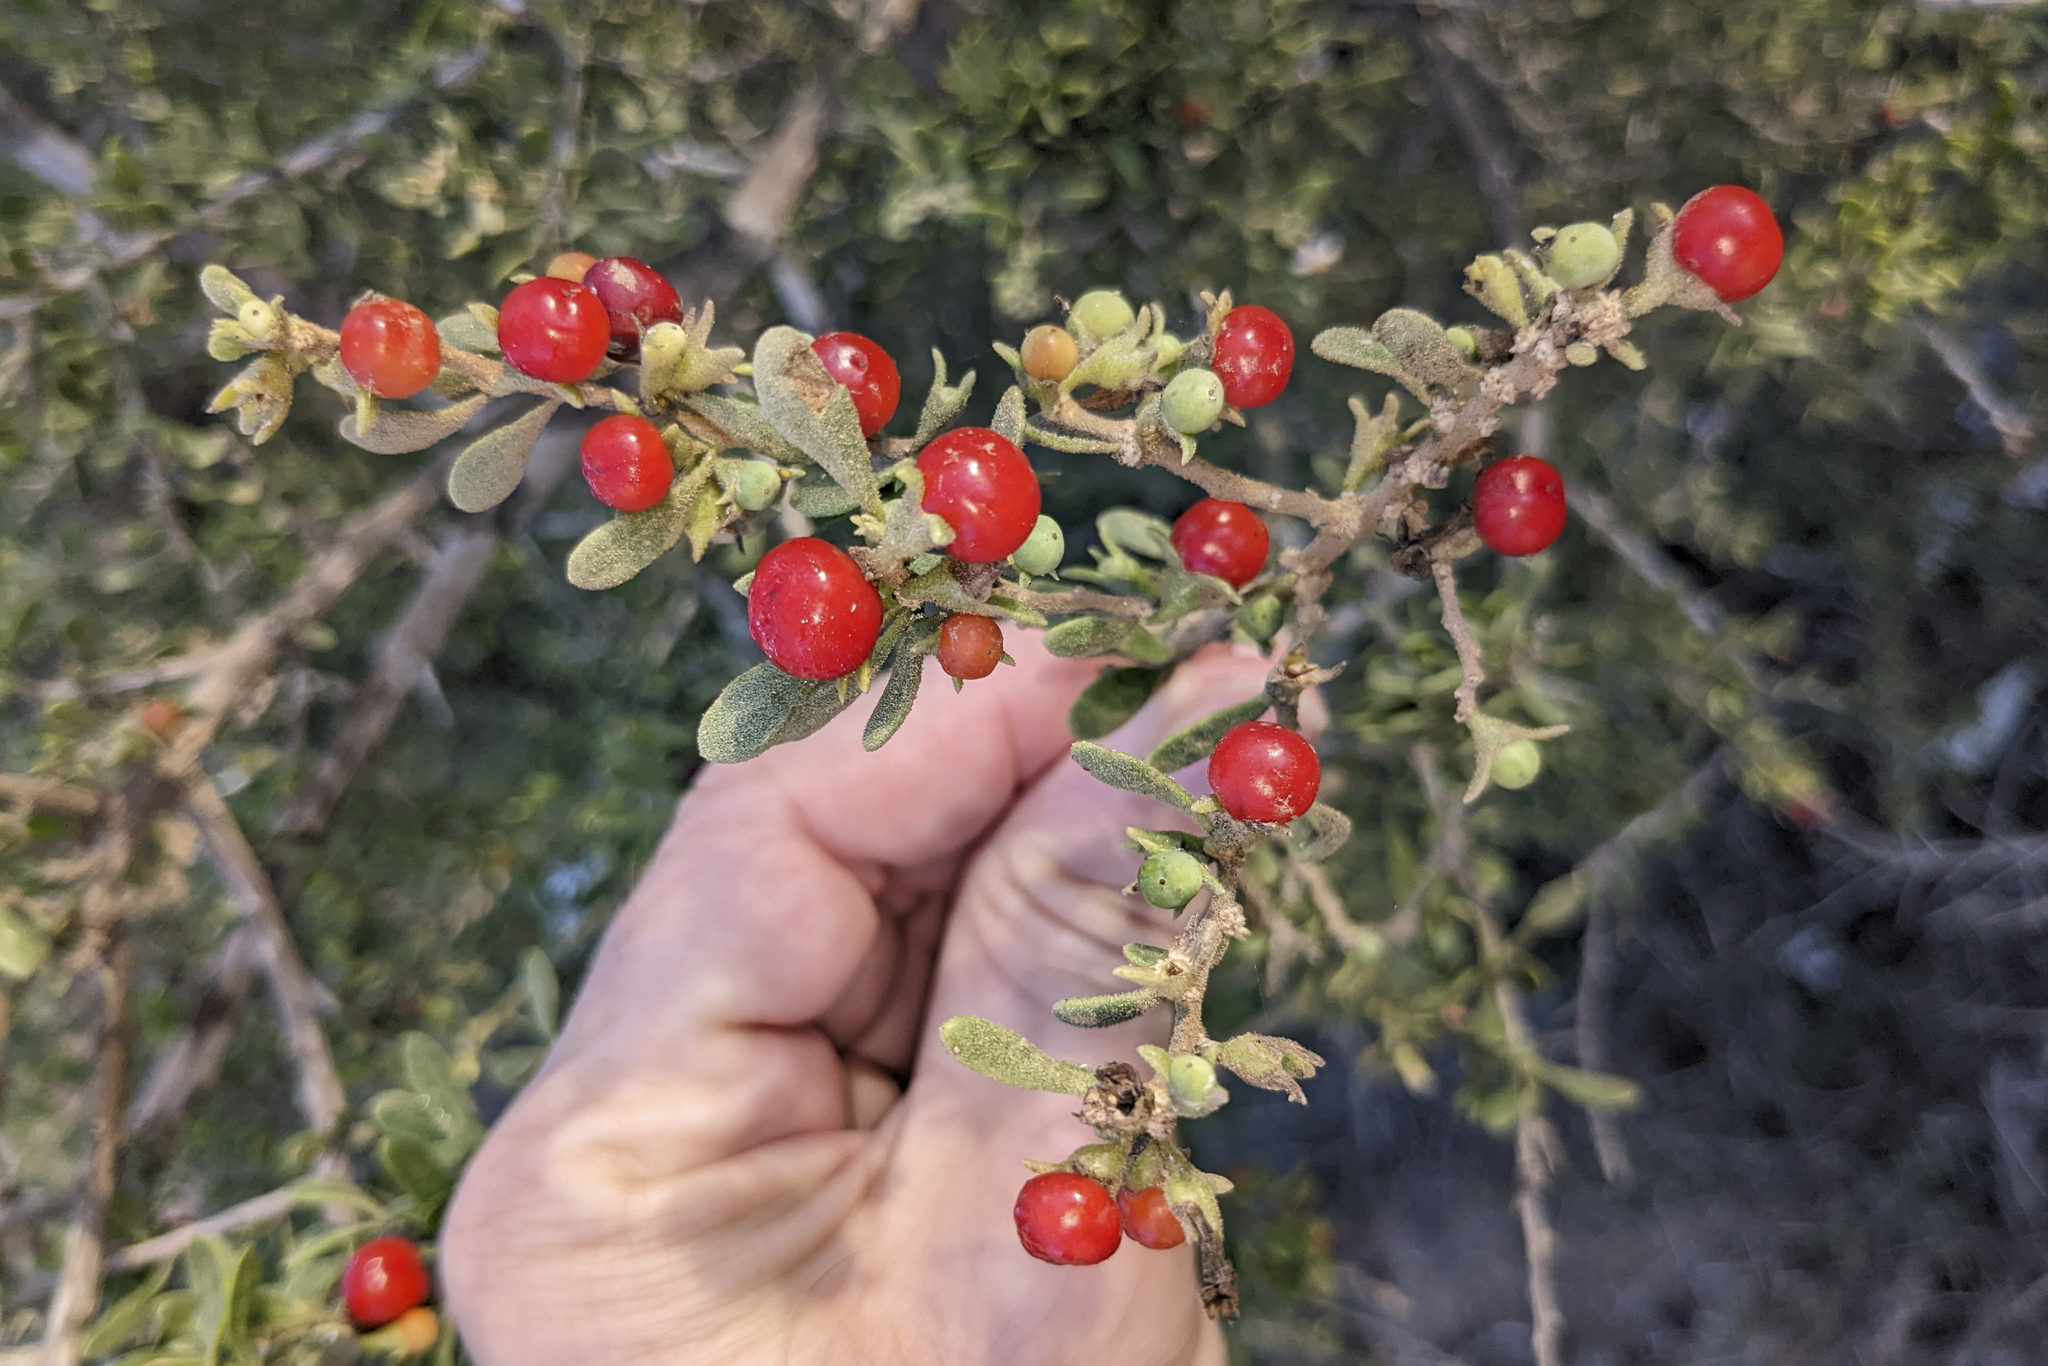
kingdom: Plantae
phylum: Tracheophyta
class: Magnoliopsida
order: Solanales
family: Solanaceae
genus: Lycium
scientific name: Lycium brevipes
